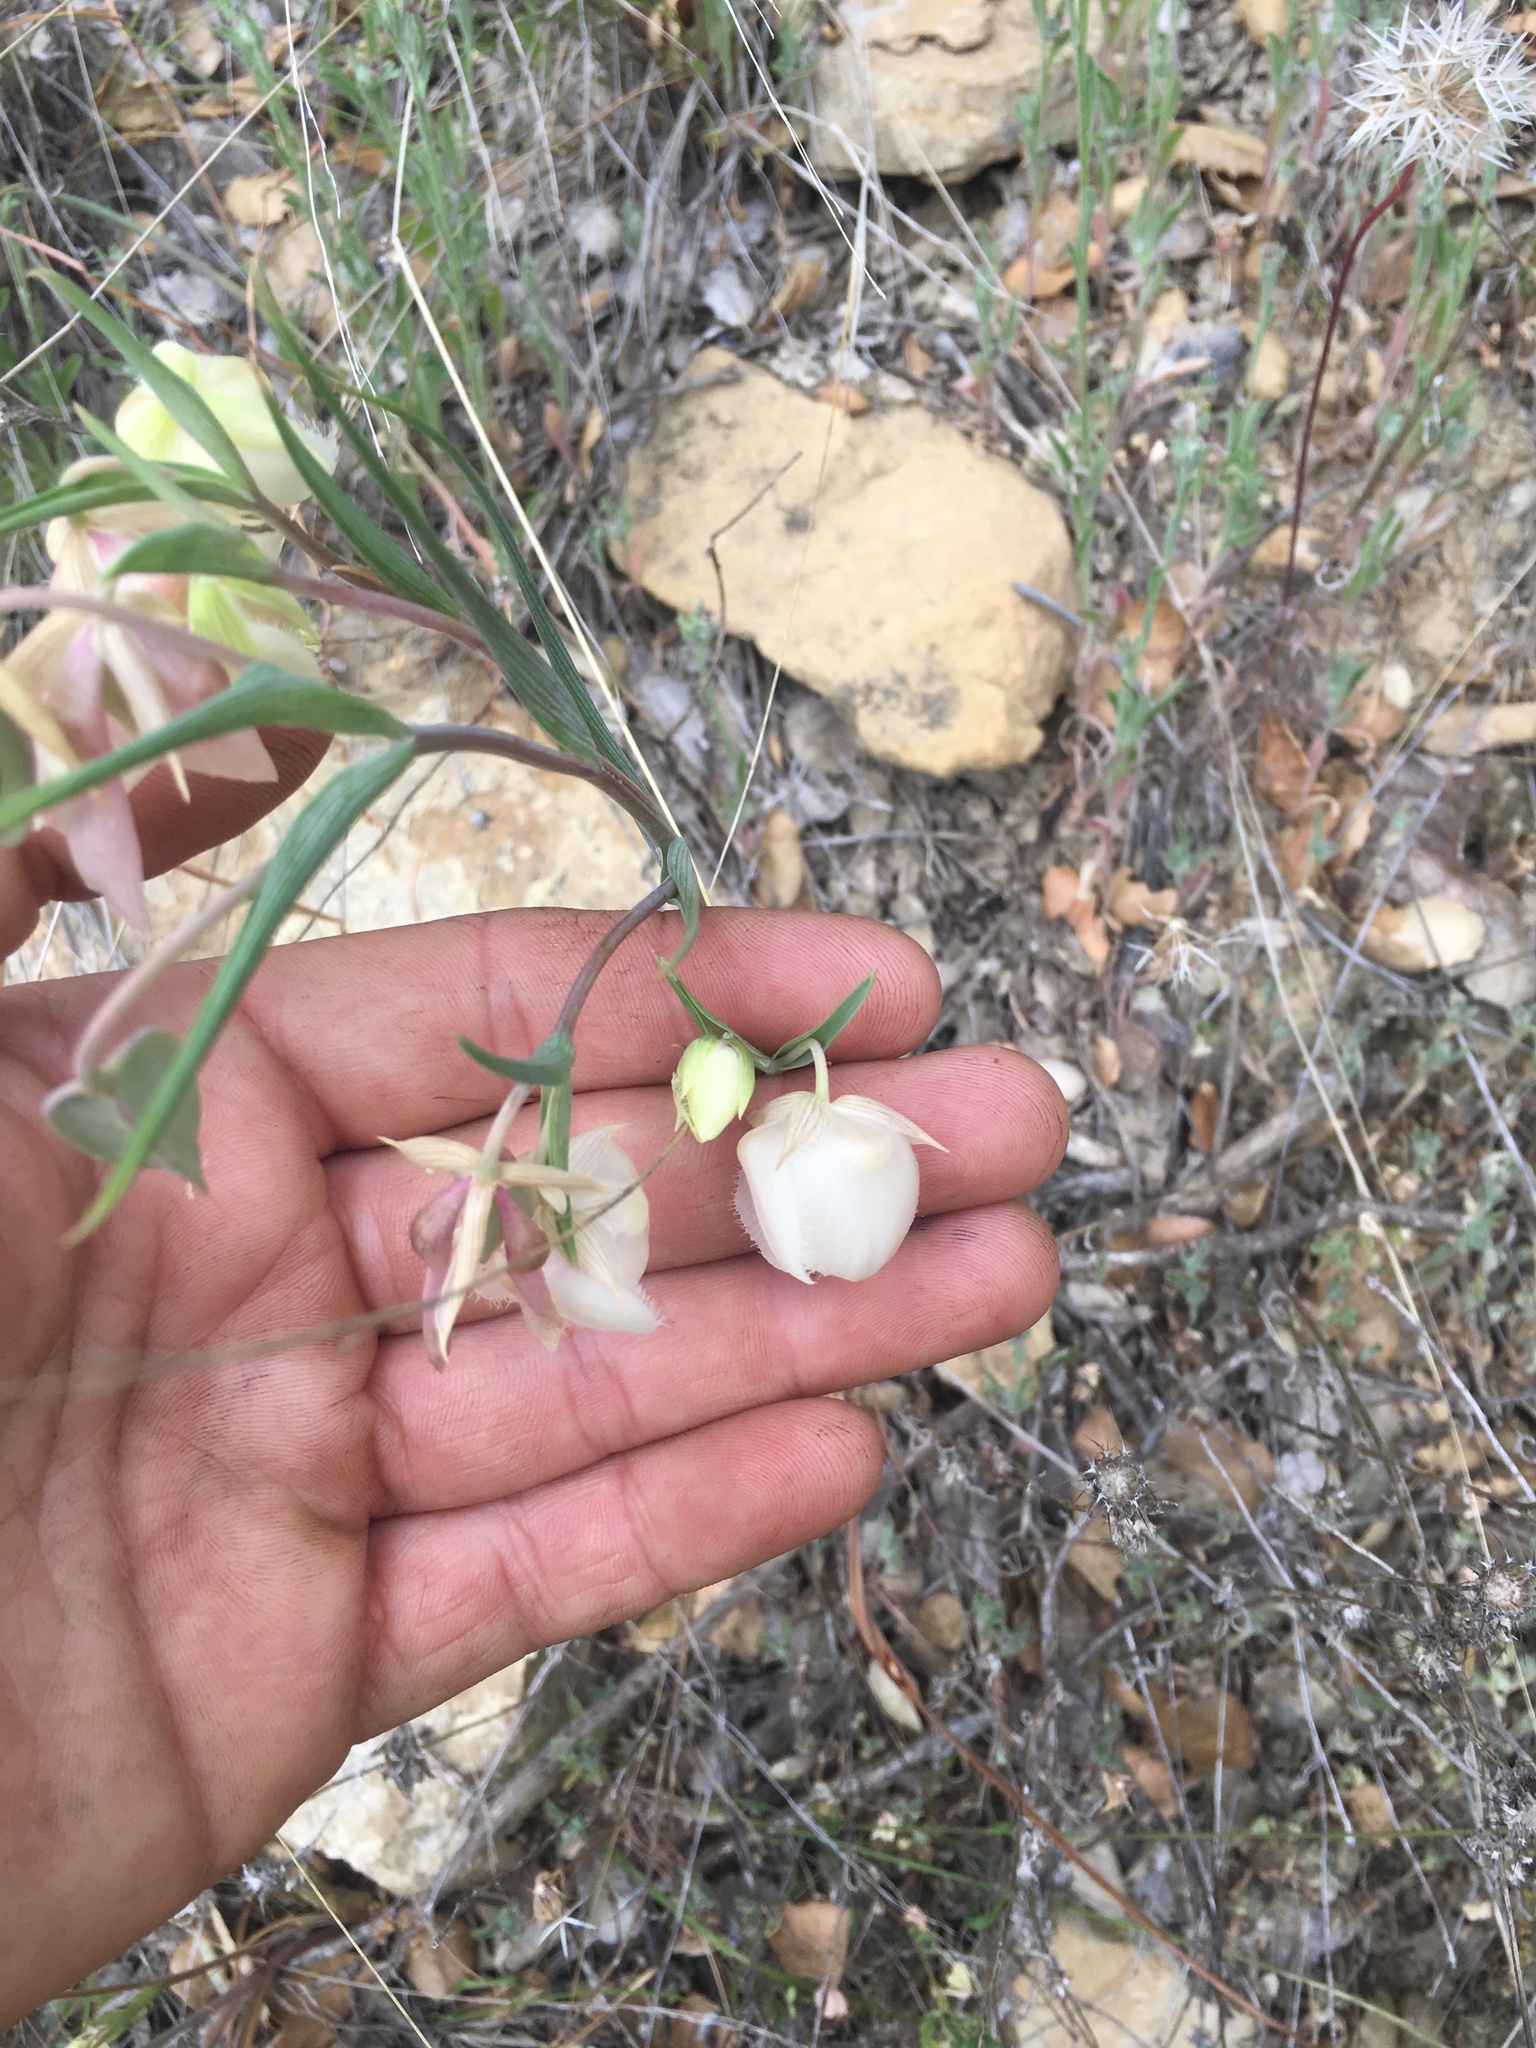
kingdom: Plantae
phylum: Tracheophyta
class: Liliopsida
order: Liliales
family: Liliaceae
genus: Calochortus
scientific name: Calochortus albus
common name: Fairy-lantern
